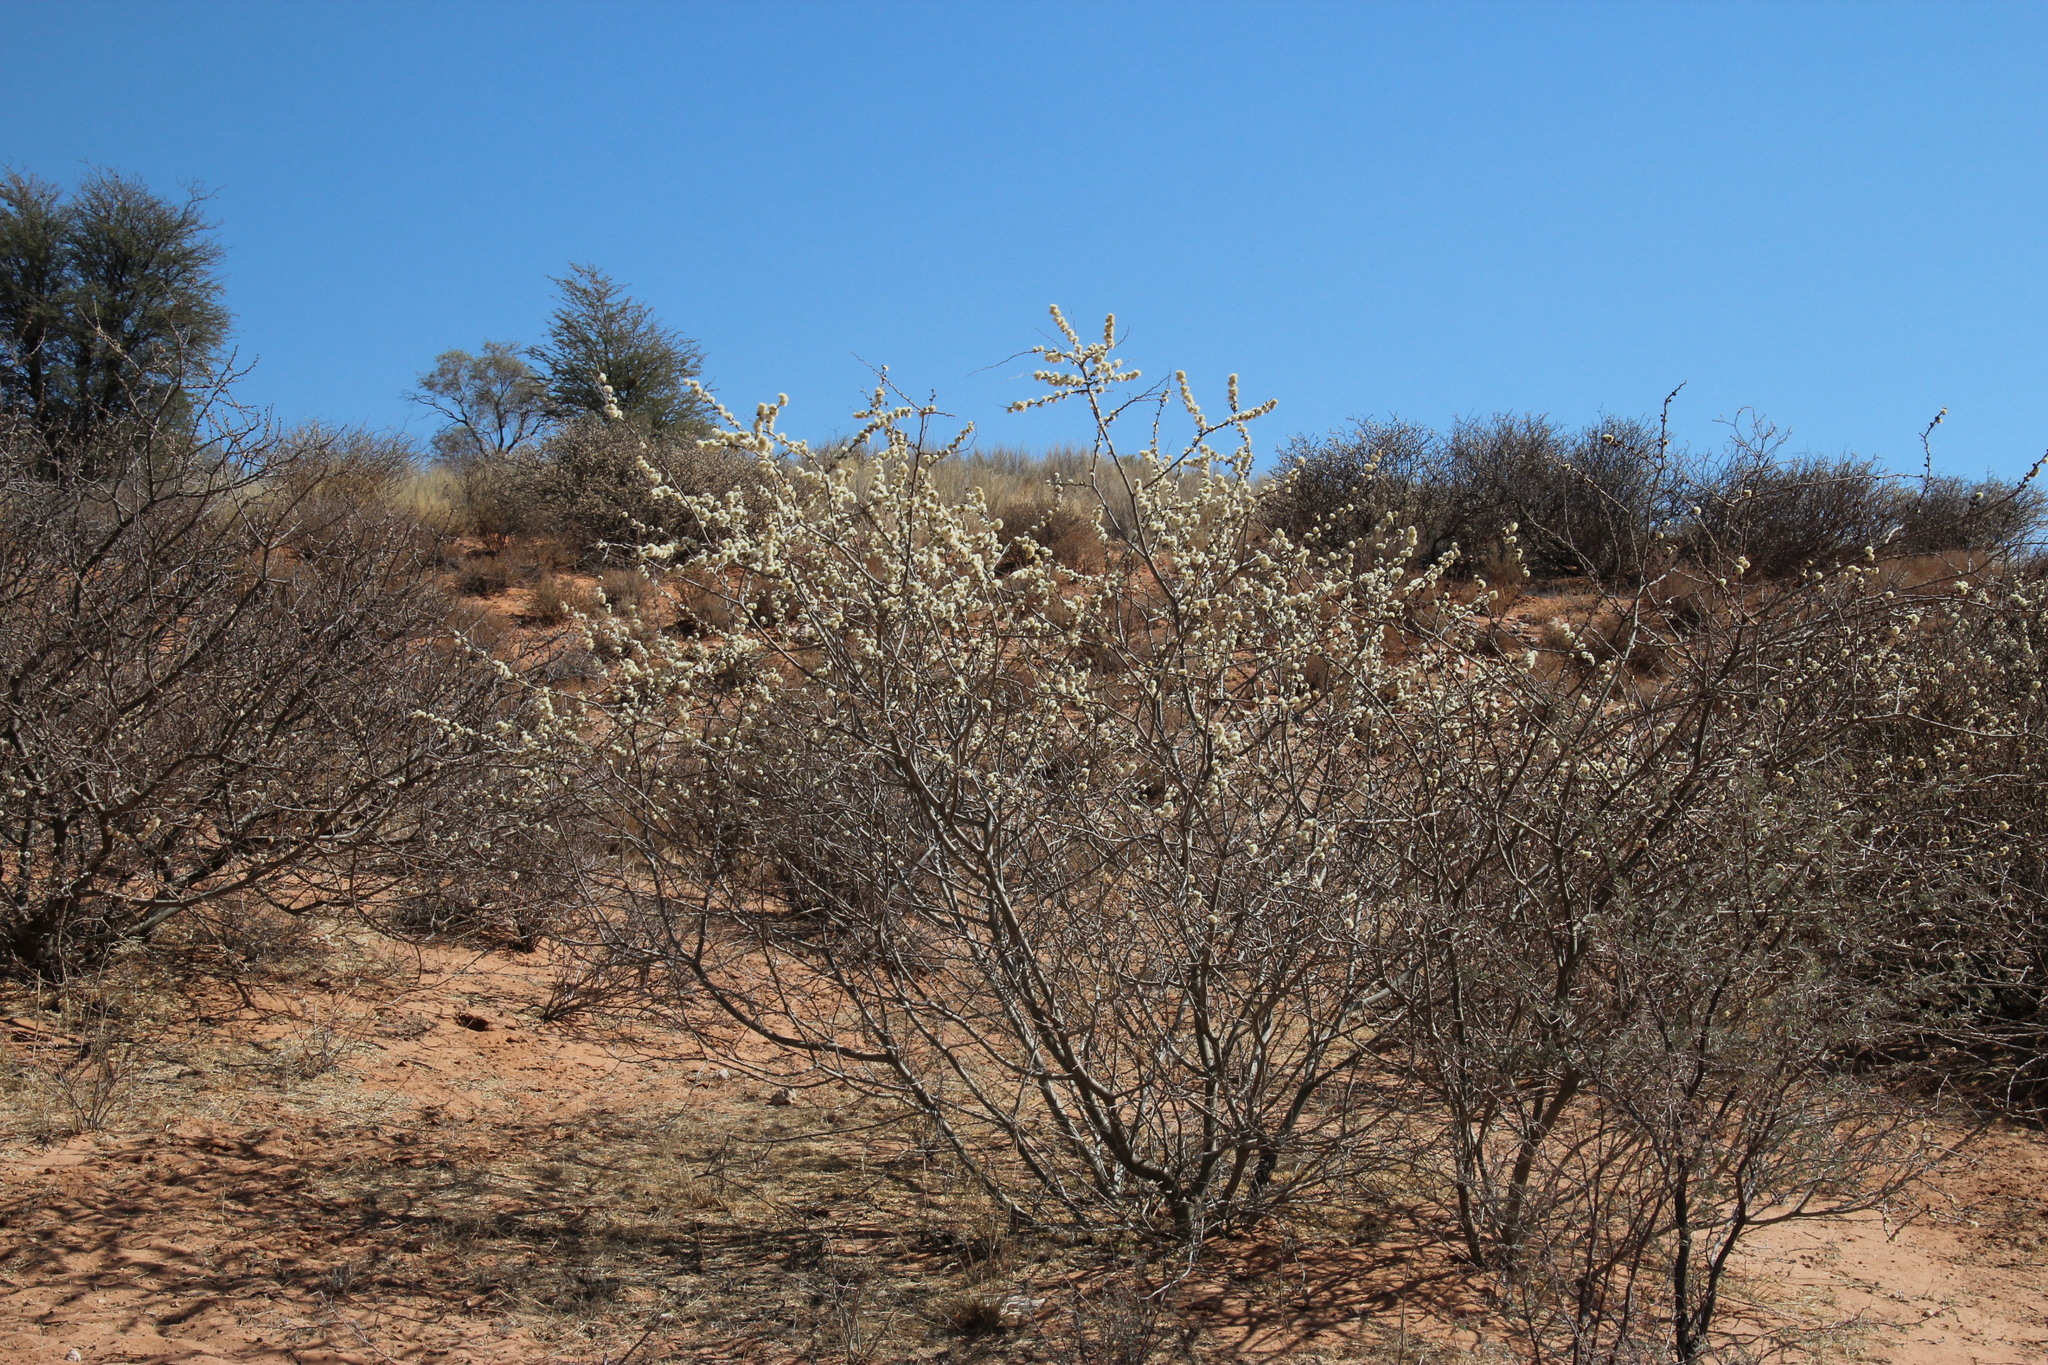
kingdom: Plantae
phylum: Tracheophyta
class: Magnoliopsida
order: Fabales
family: Fabaceae
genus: Senegalia
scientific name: Senegalia mellifera
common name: Hookthorn
